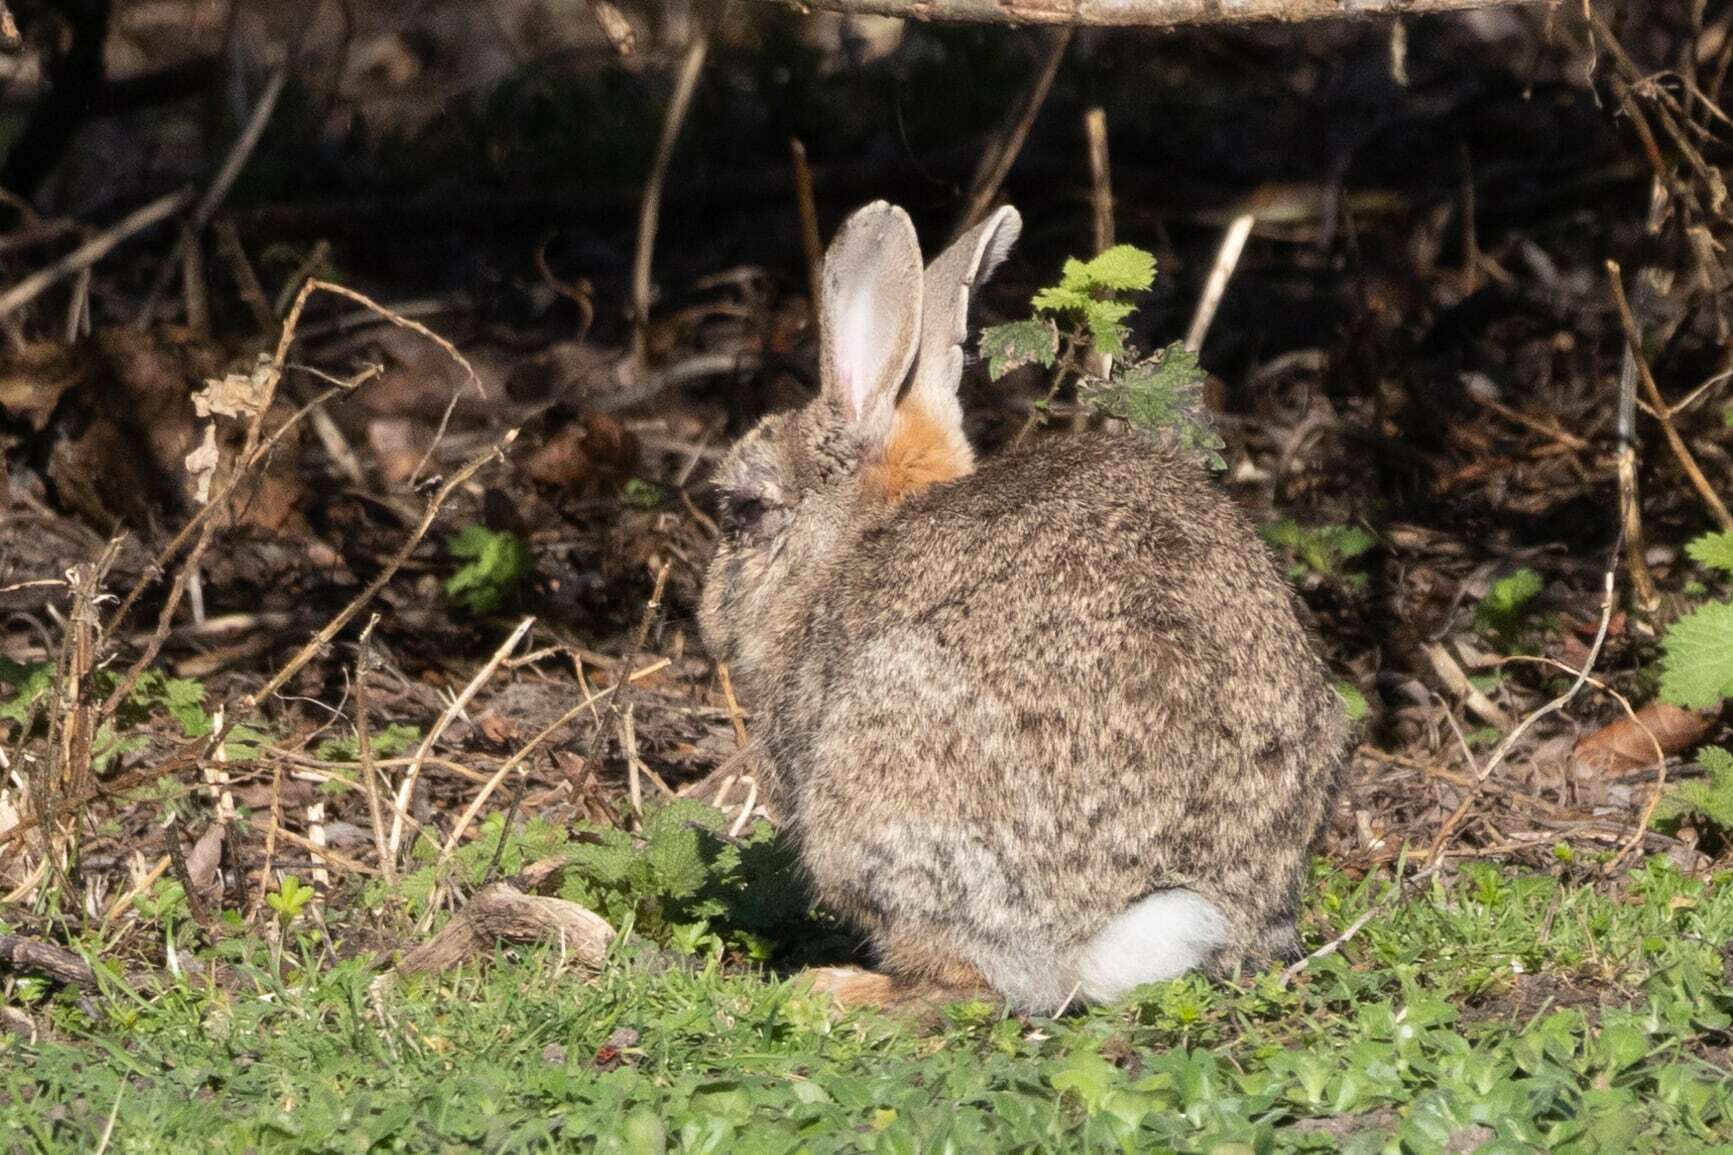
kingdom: Animalia
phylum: Chordata
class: Mammalia
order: Lagomorpha
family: Leporidae
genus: Oryctolagus
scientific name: Oryctolagus cuniculus
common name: European rabbit
